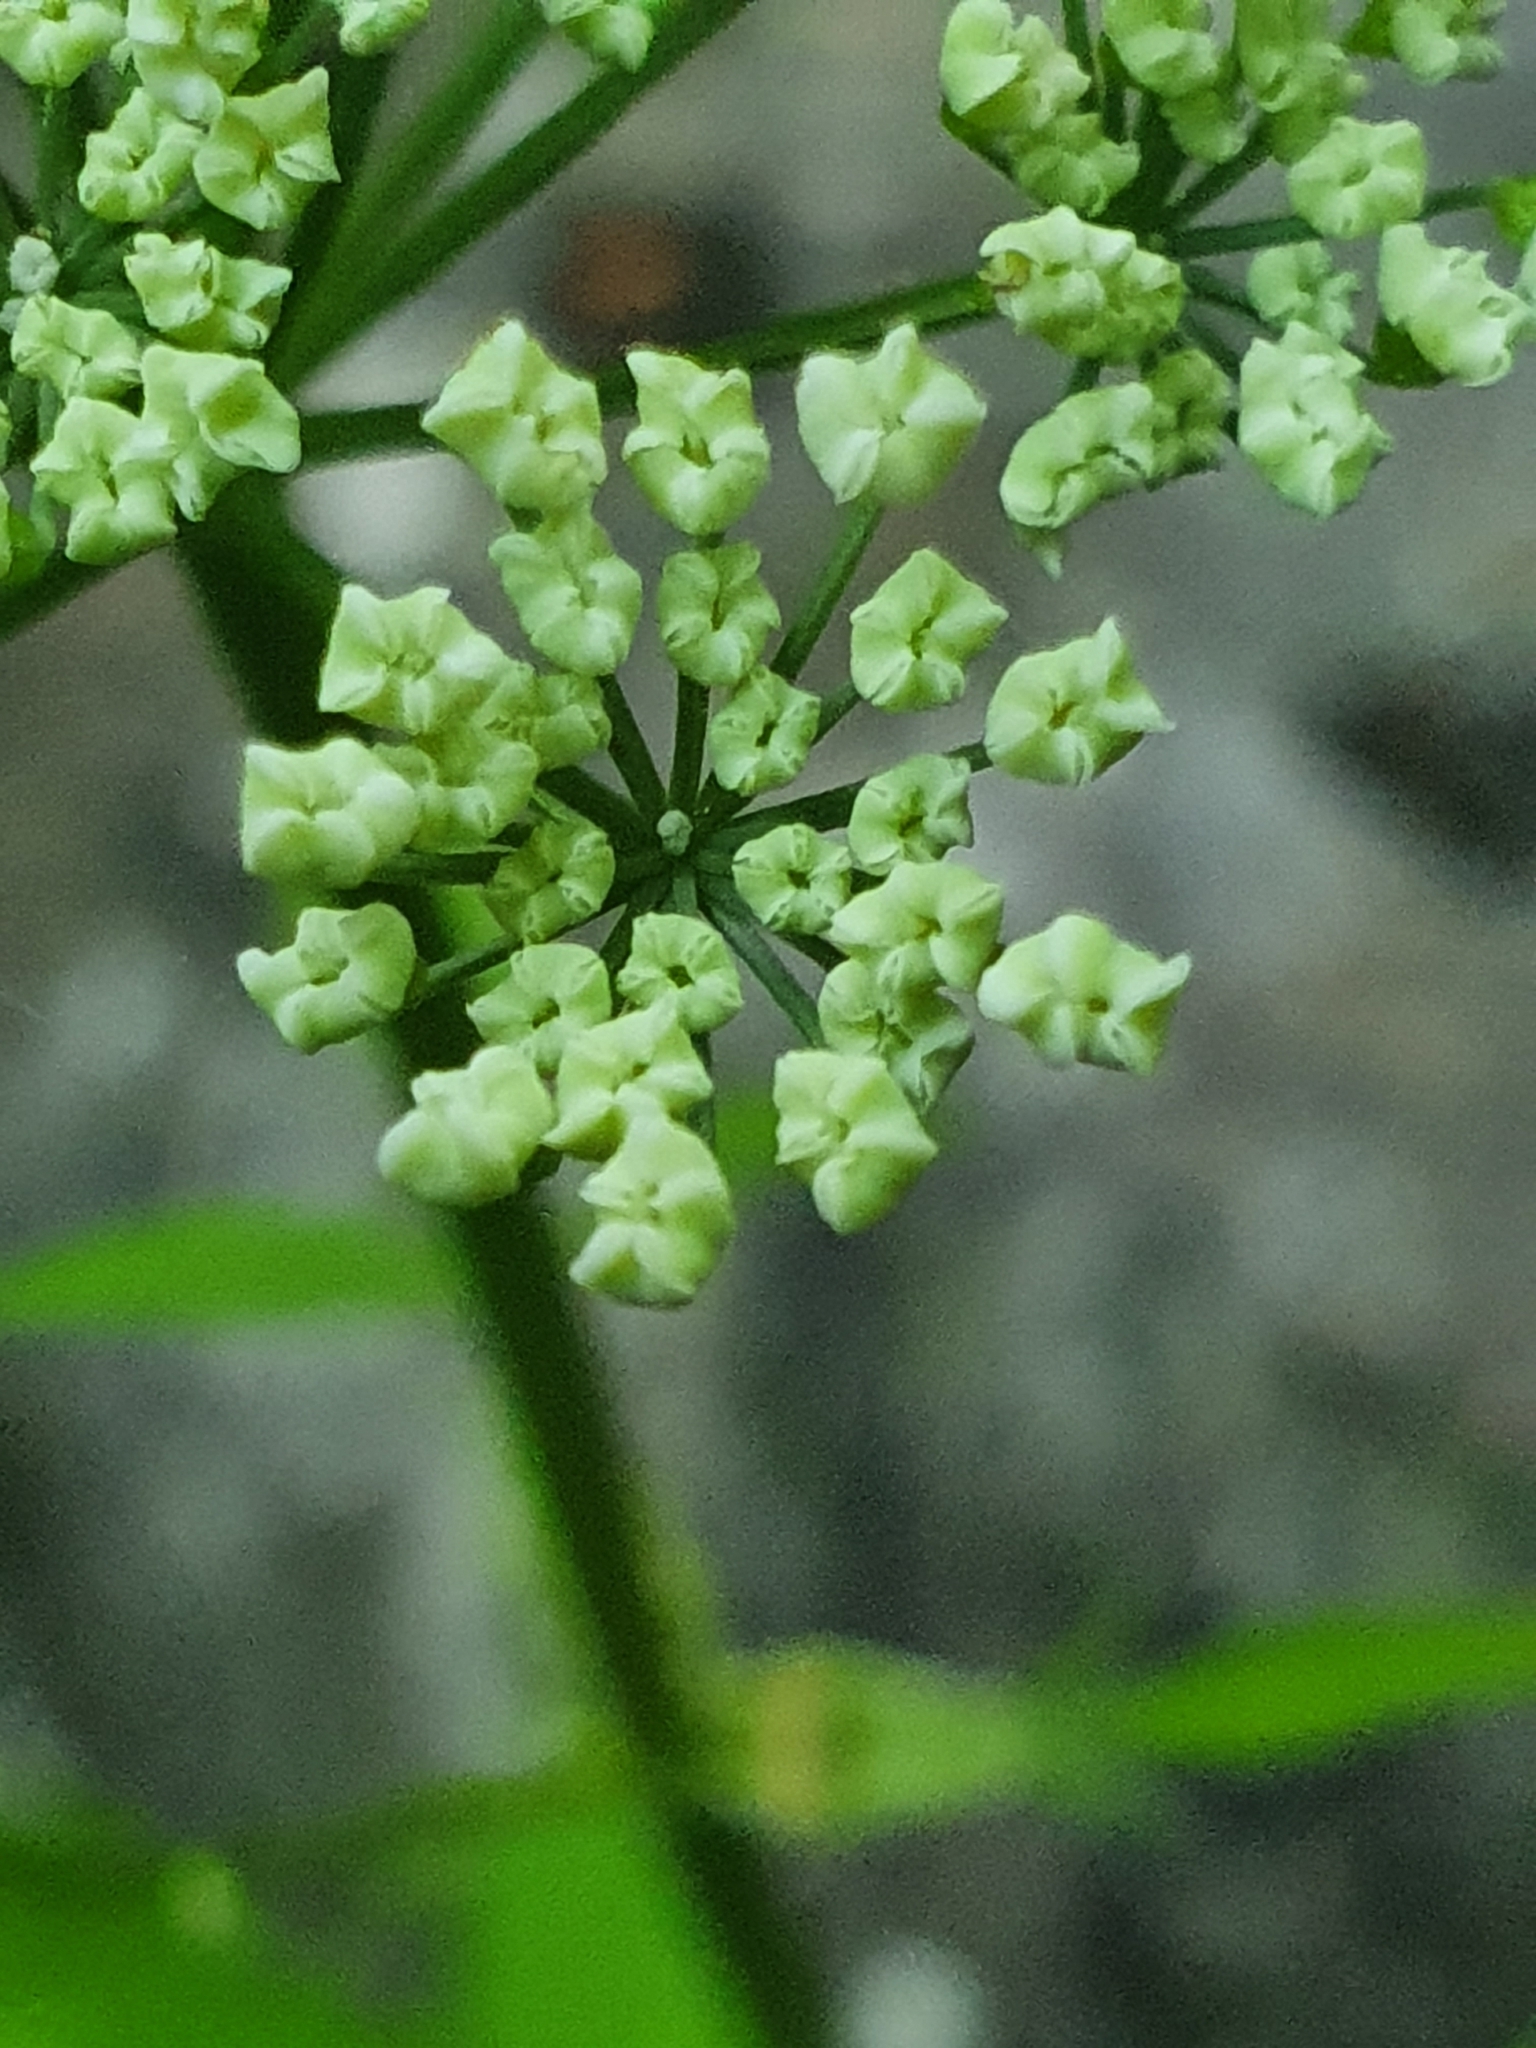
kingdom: Plantae
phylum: Tracheophyta
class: Magnoliopsida
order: Apiales
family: Apiaceae
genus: Aegopodium
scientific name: Aegopodium podagraria
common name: Ground-elder
